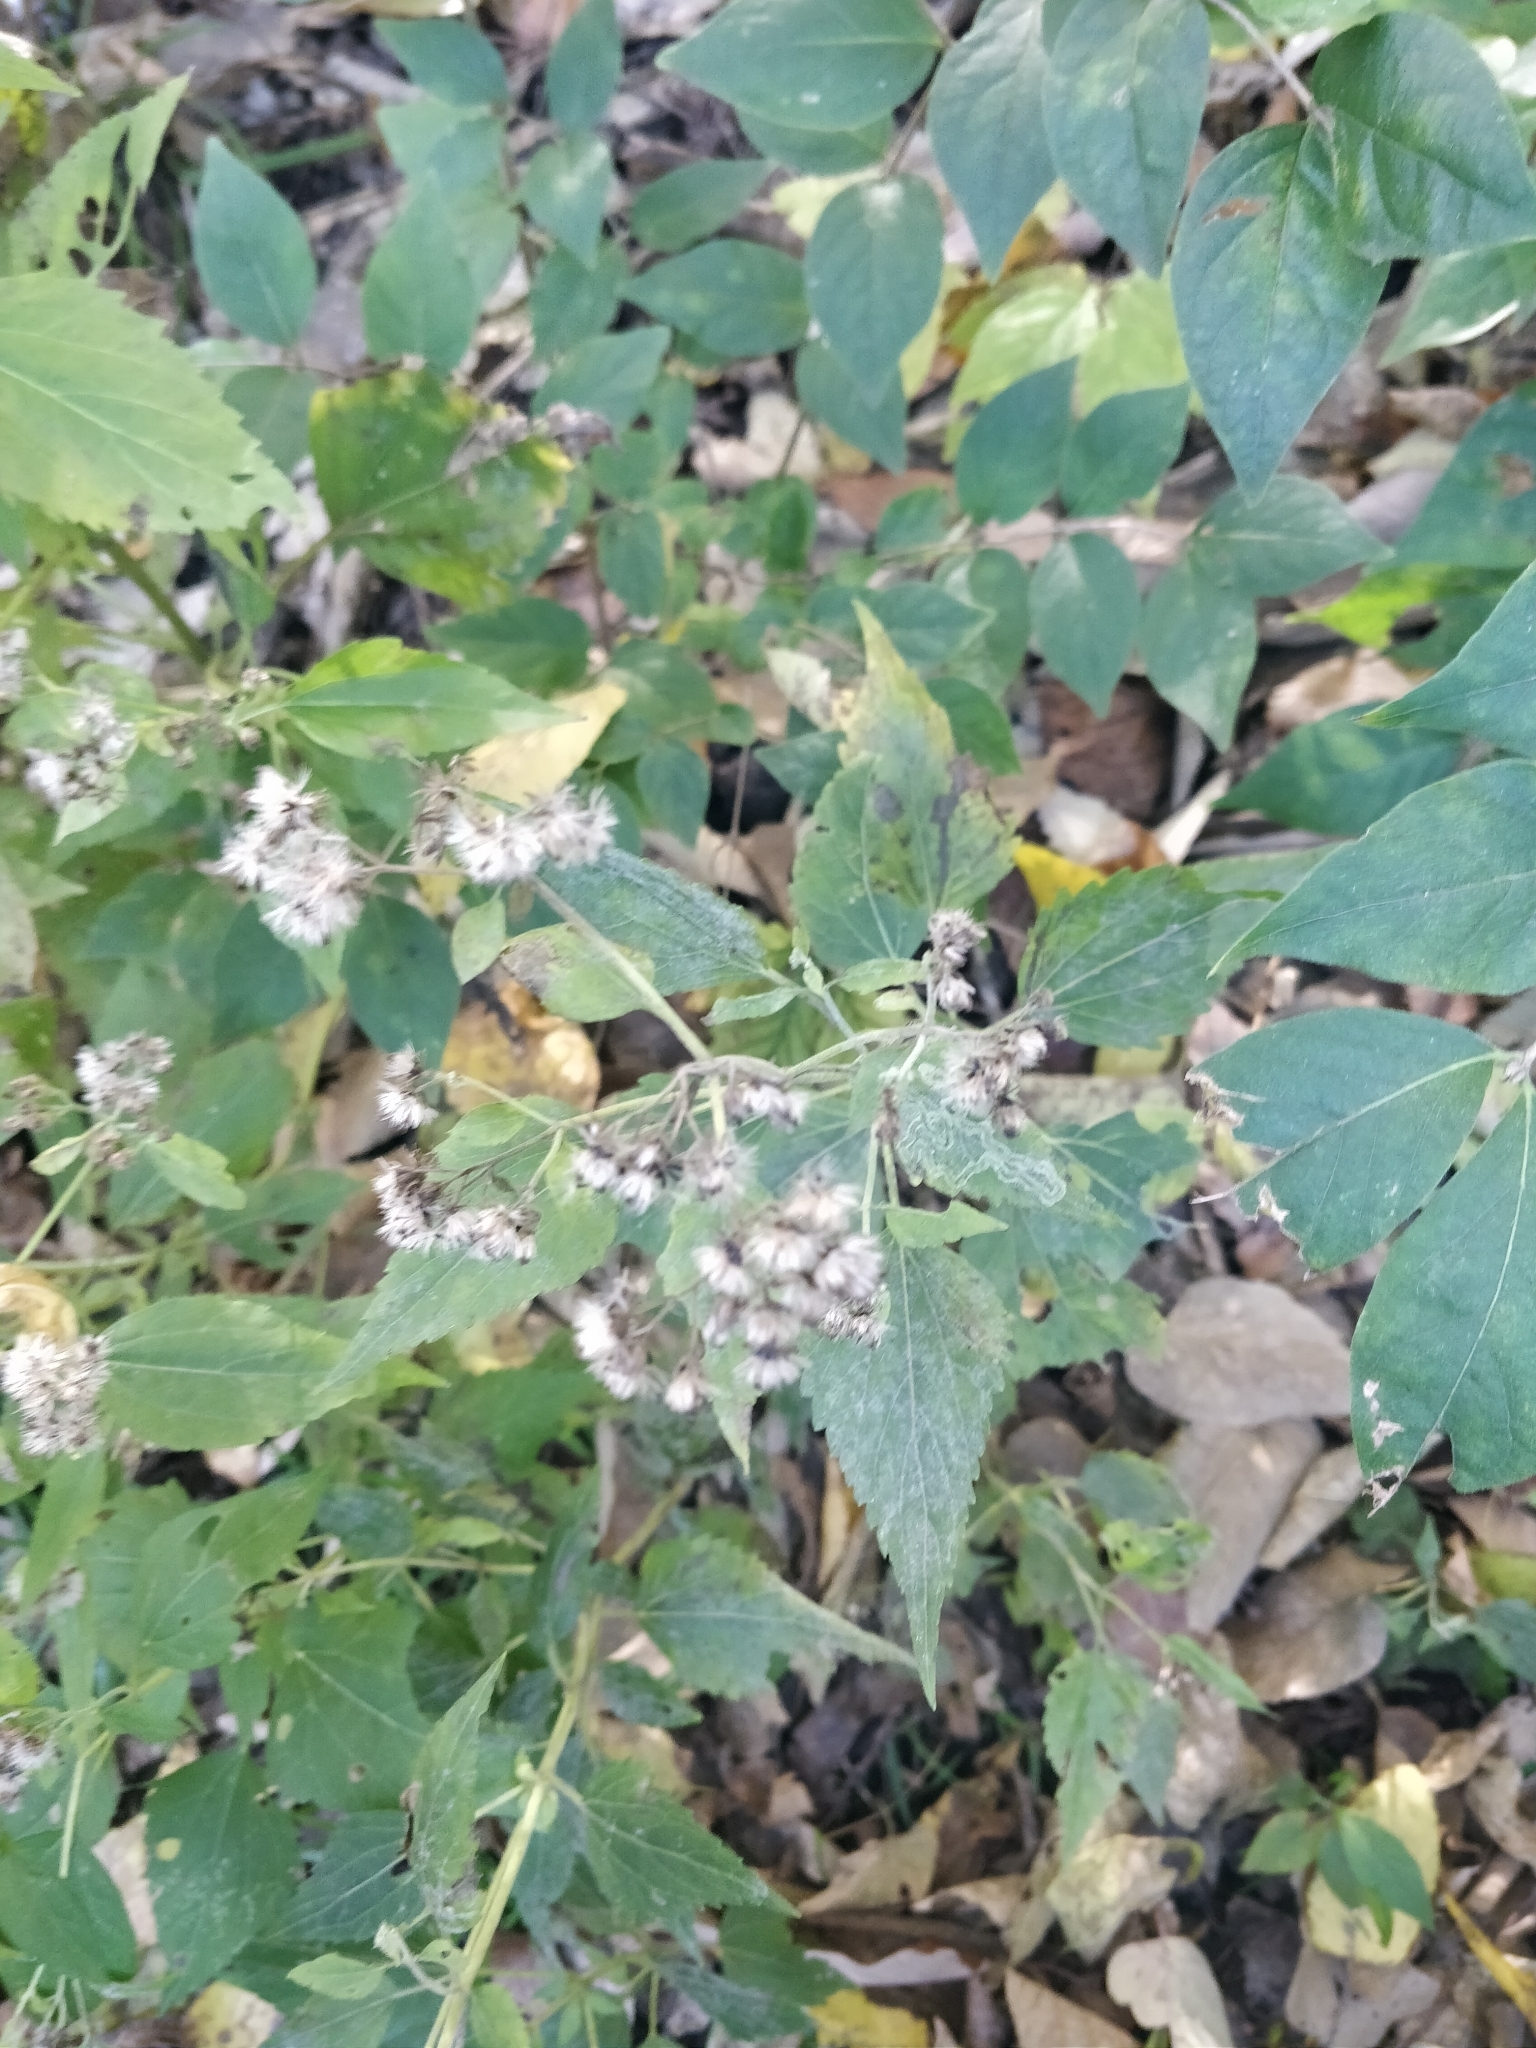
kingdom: Plantae
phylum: Tracheophyta
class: Magnoliopsida
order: Asterales
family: Asteraceae
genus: Ageratina
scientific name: Ageratina altissima
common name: White snakeroot
